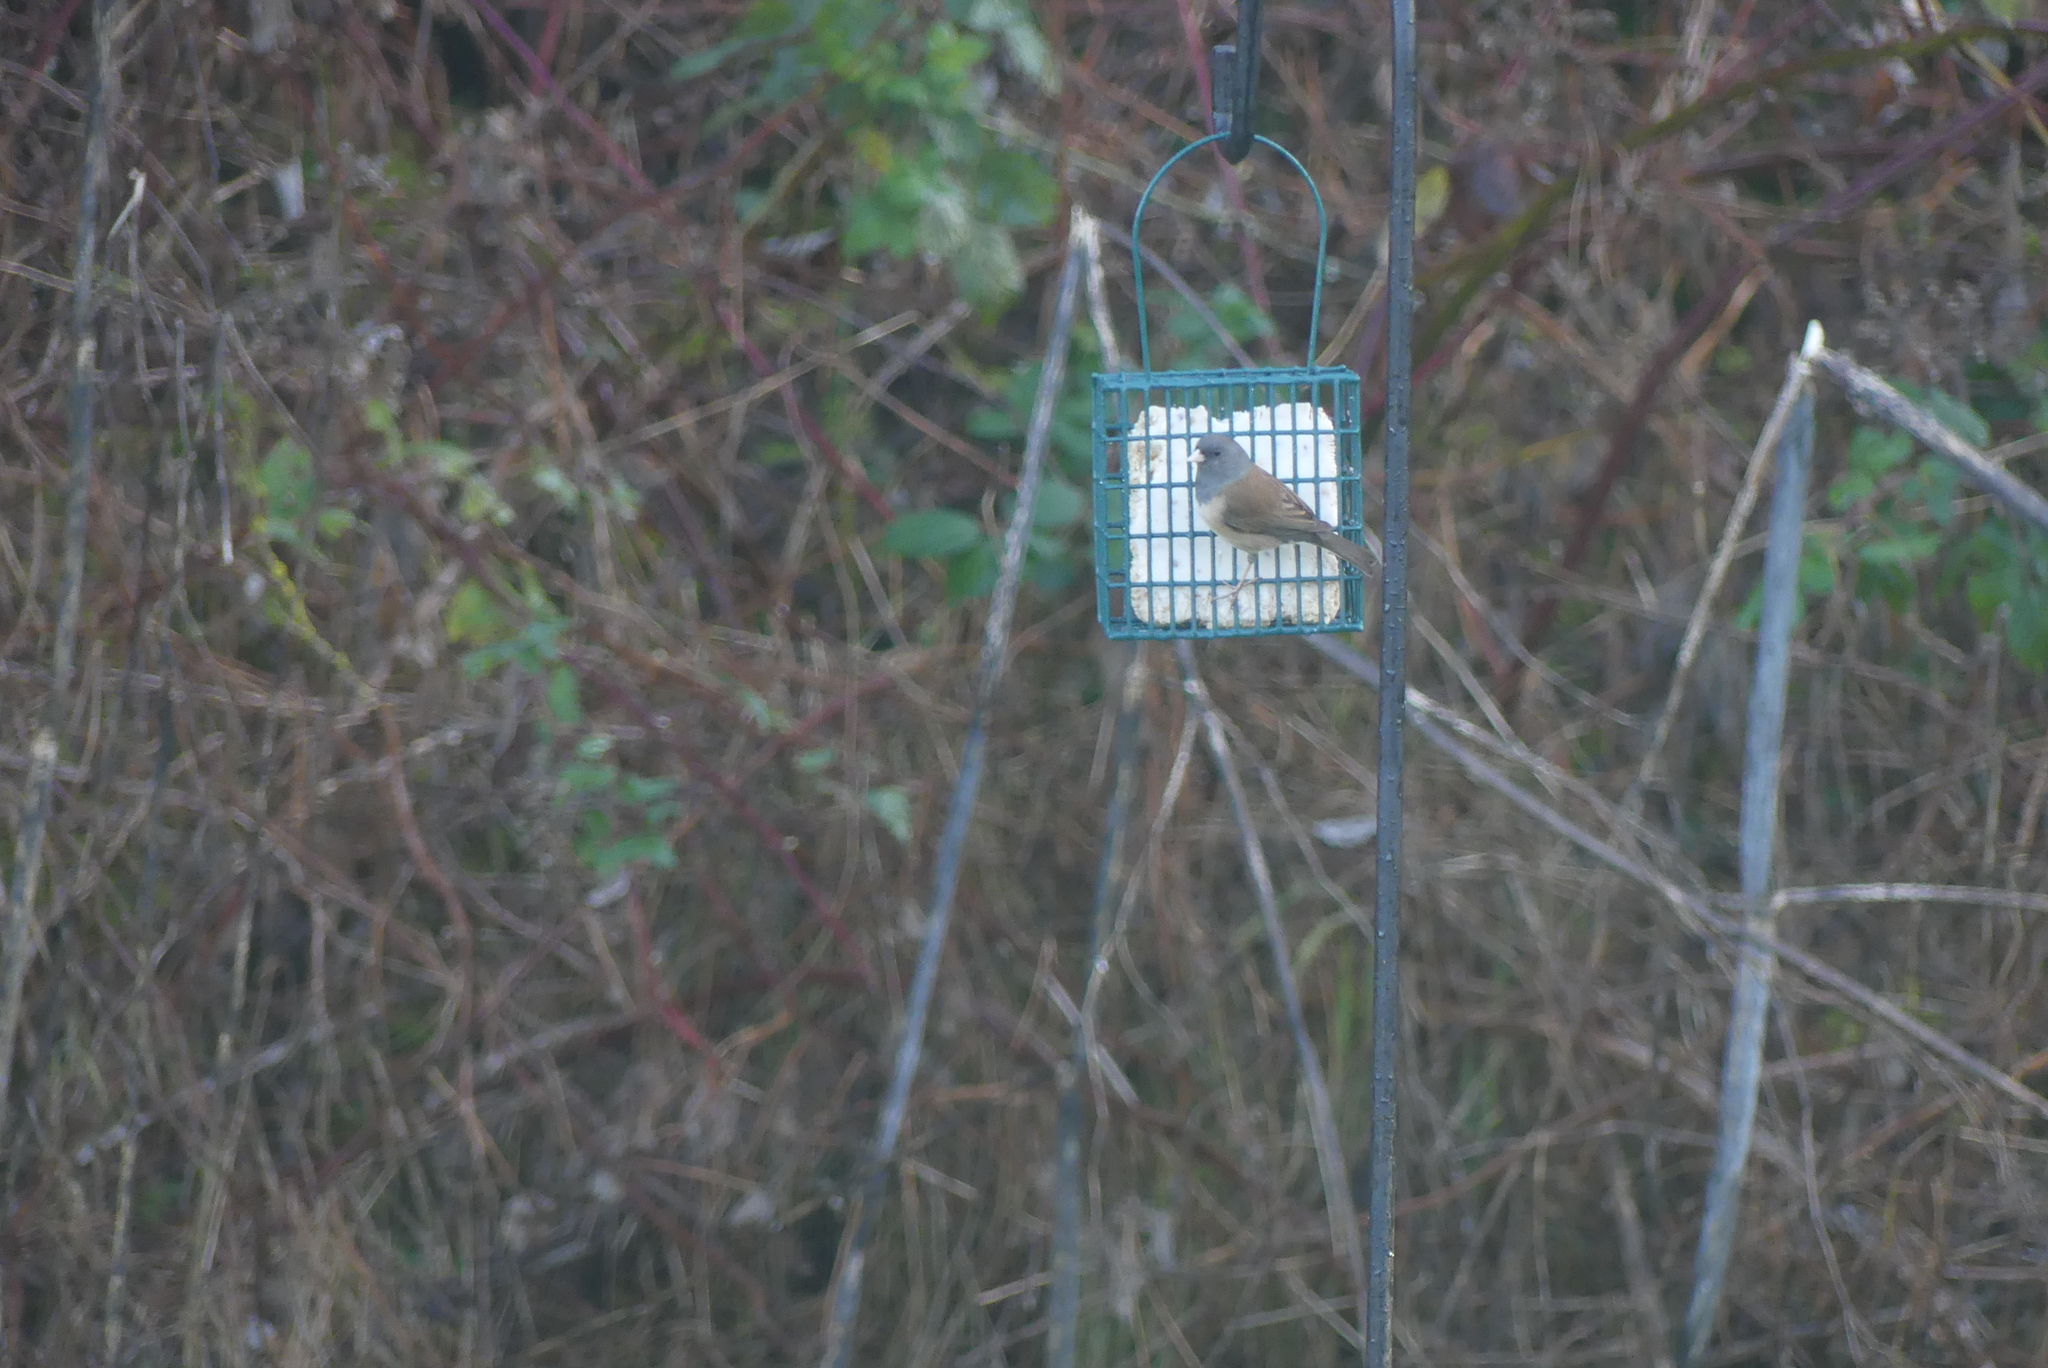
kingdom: Animalia
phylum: Chordata
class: Aves
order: Passeriformes
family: Passerellidae
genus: Junco
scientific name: Junco hyemalis
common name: Dark-eyed junco
